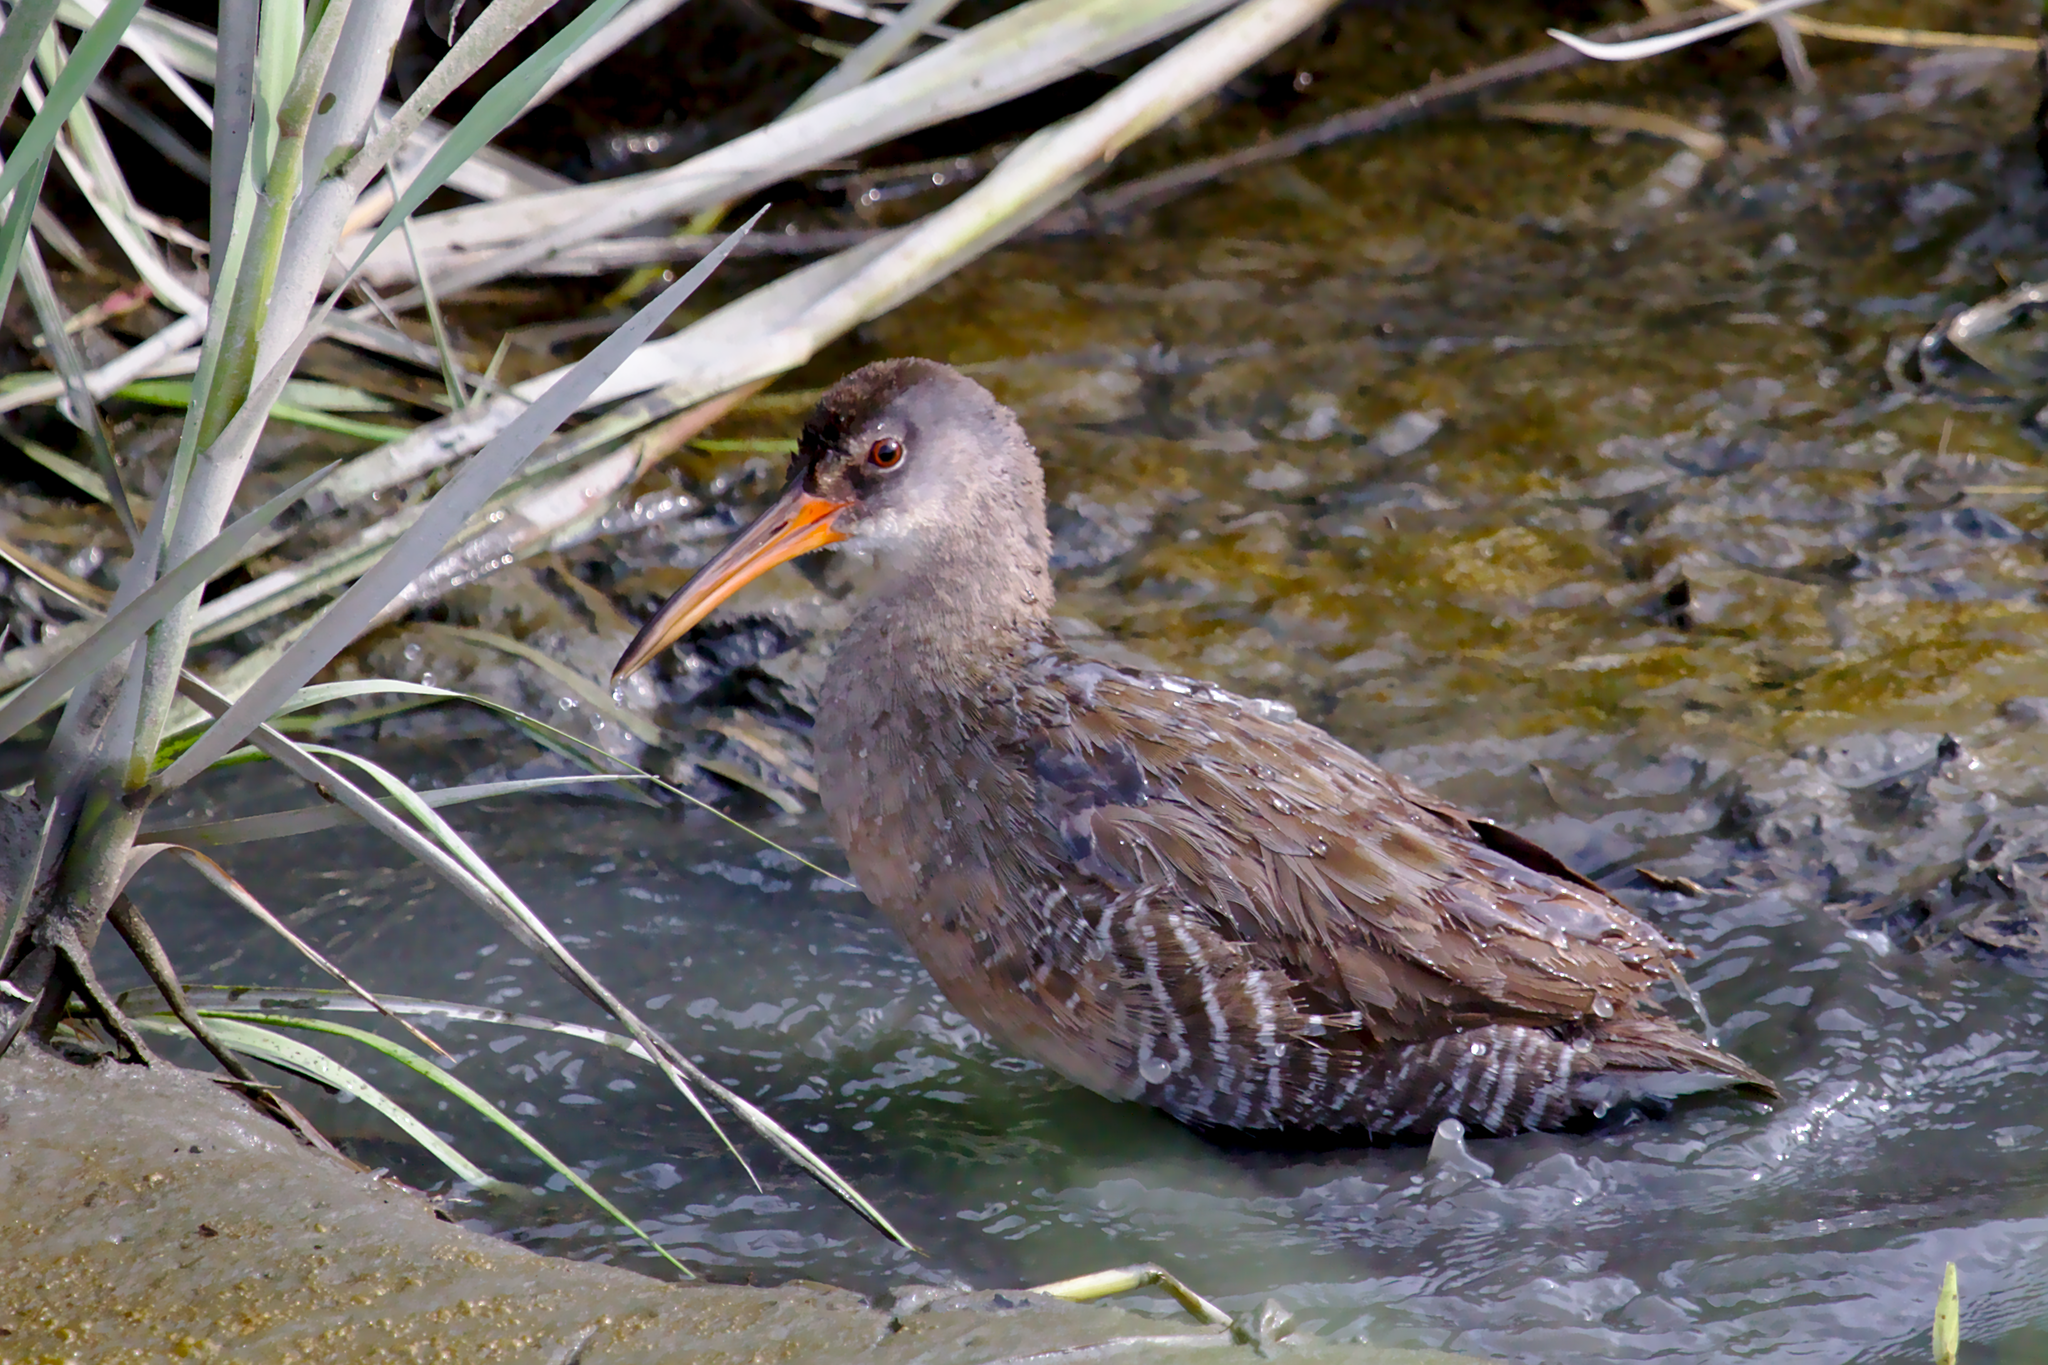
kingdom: Animalia
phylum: Chordata
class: Aves
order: Gruiformes
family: Rallidae
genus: Rallus
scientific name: Rallus crepitans
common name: Clapper rail
